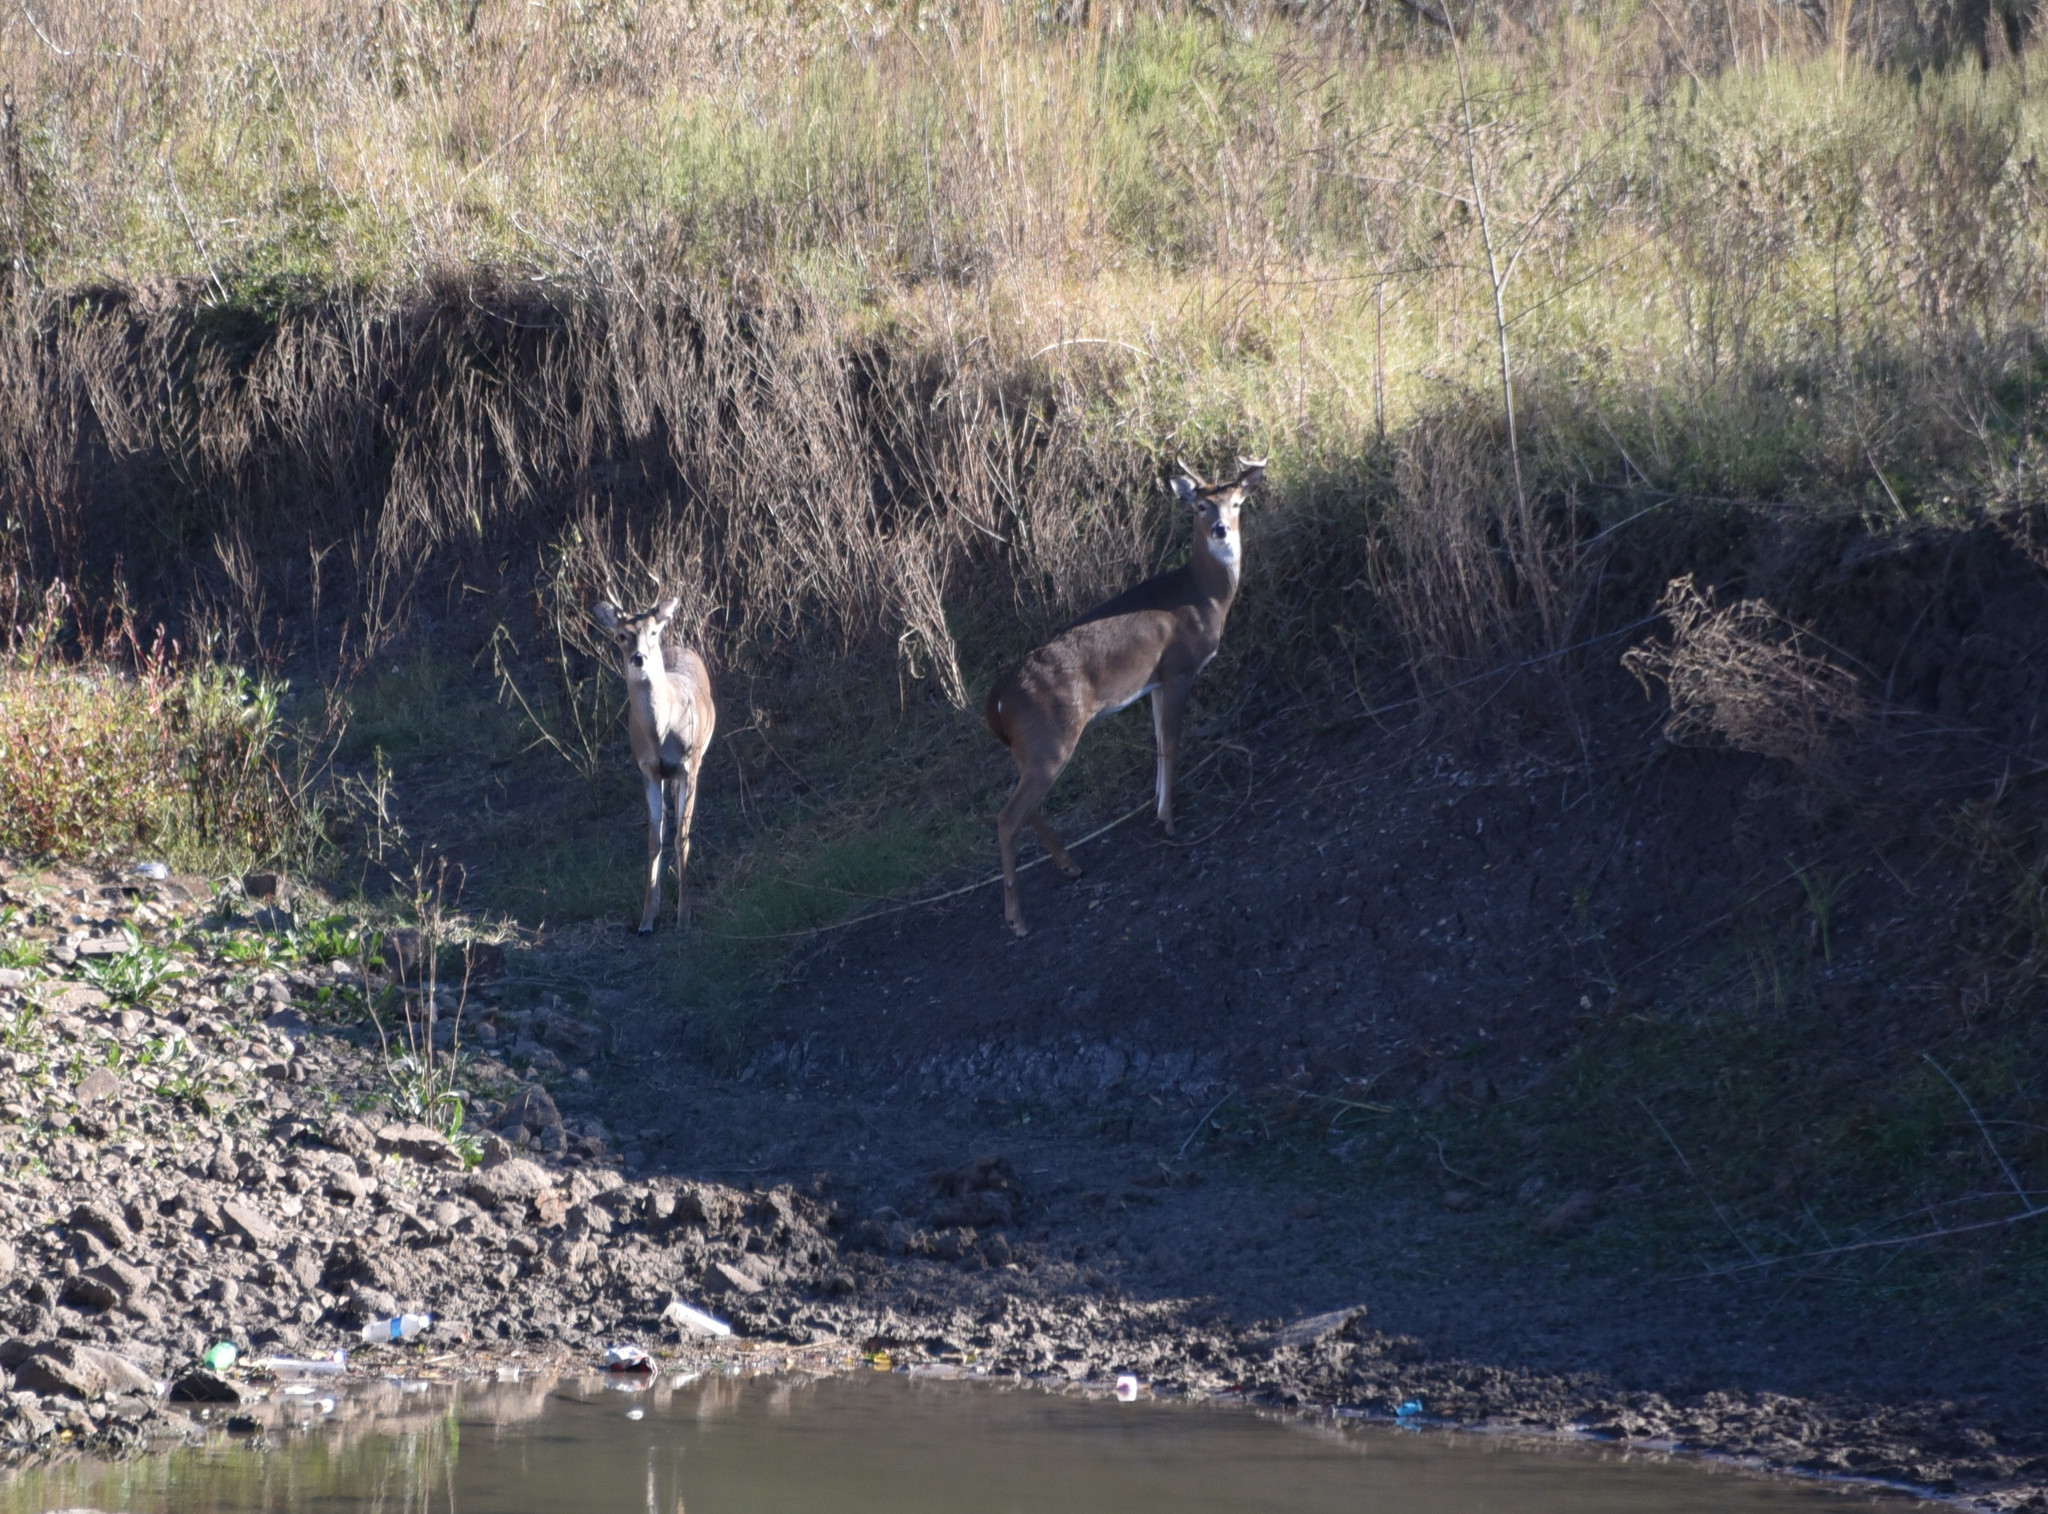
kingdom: Animalia
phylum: Chordata
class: Mammalia
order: Artiodactyla
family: Cervidae
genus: Odocoileus
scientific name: Odocoileus virginianus
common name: White-tailed deer
